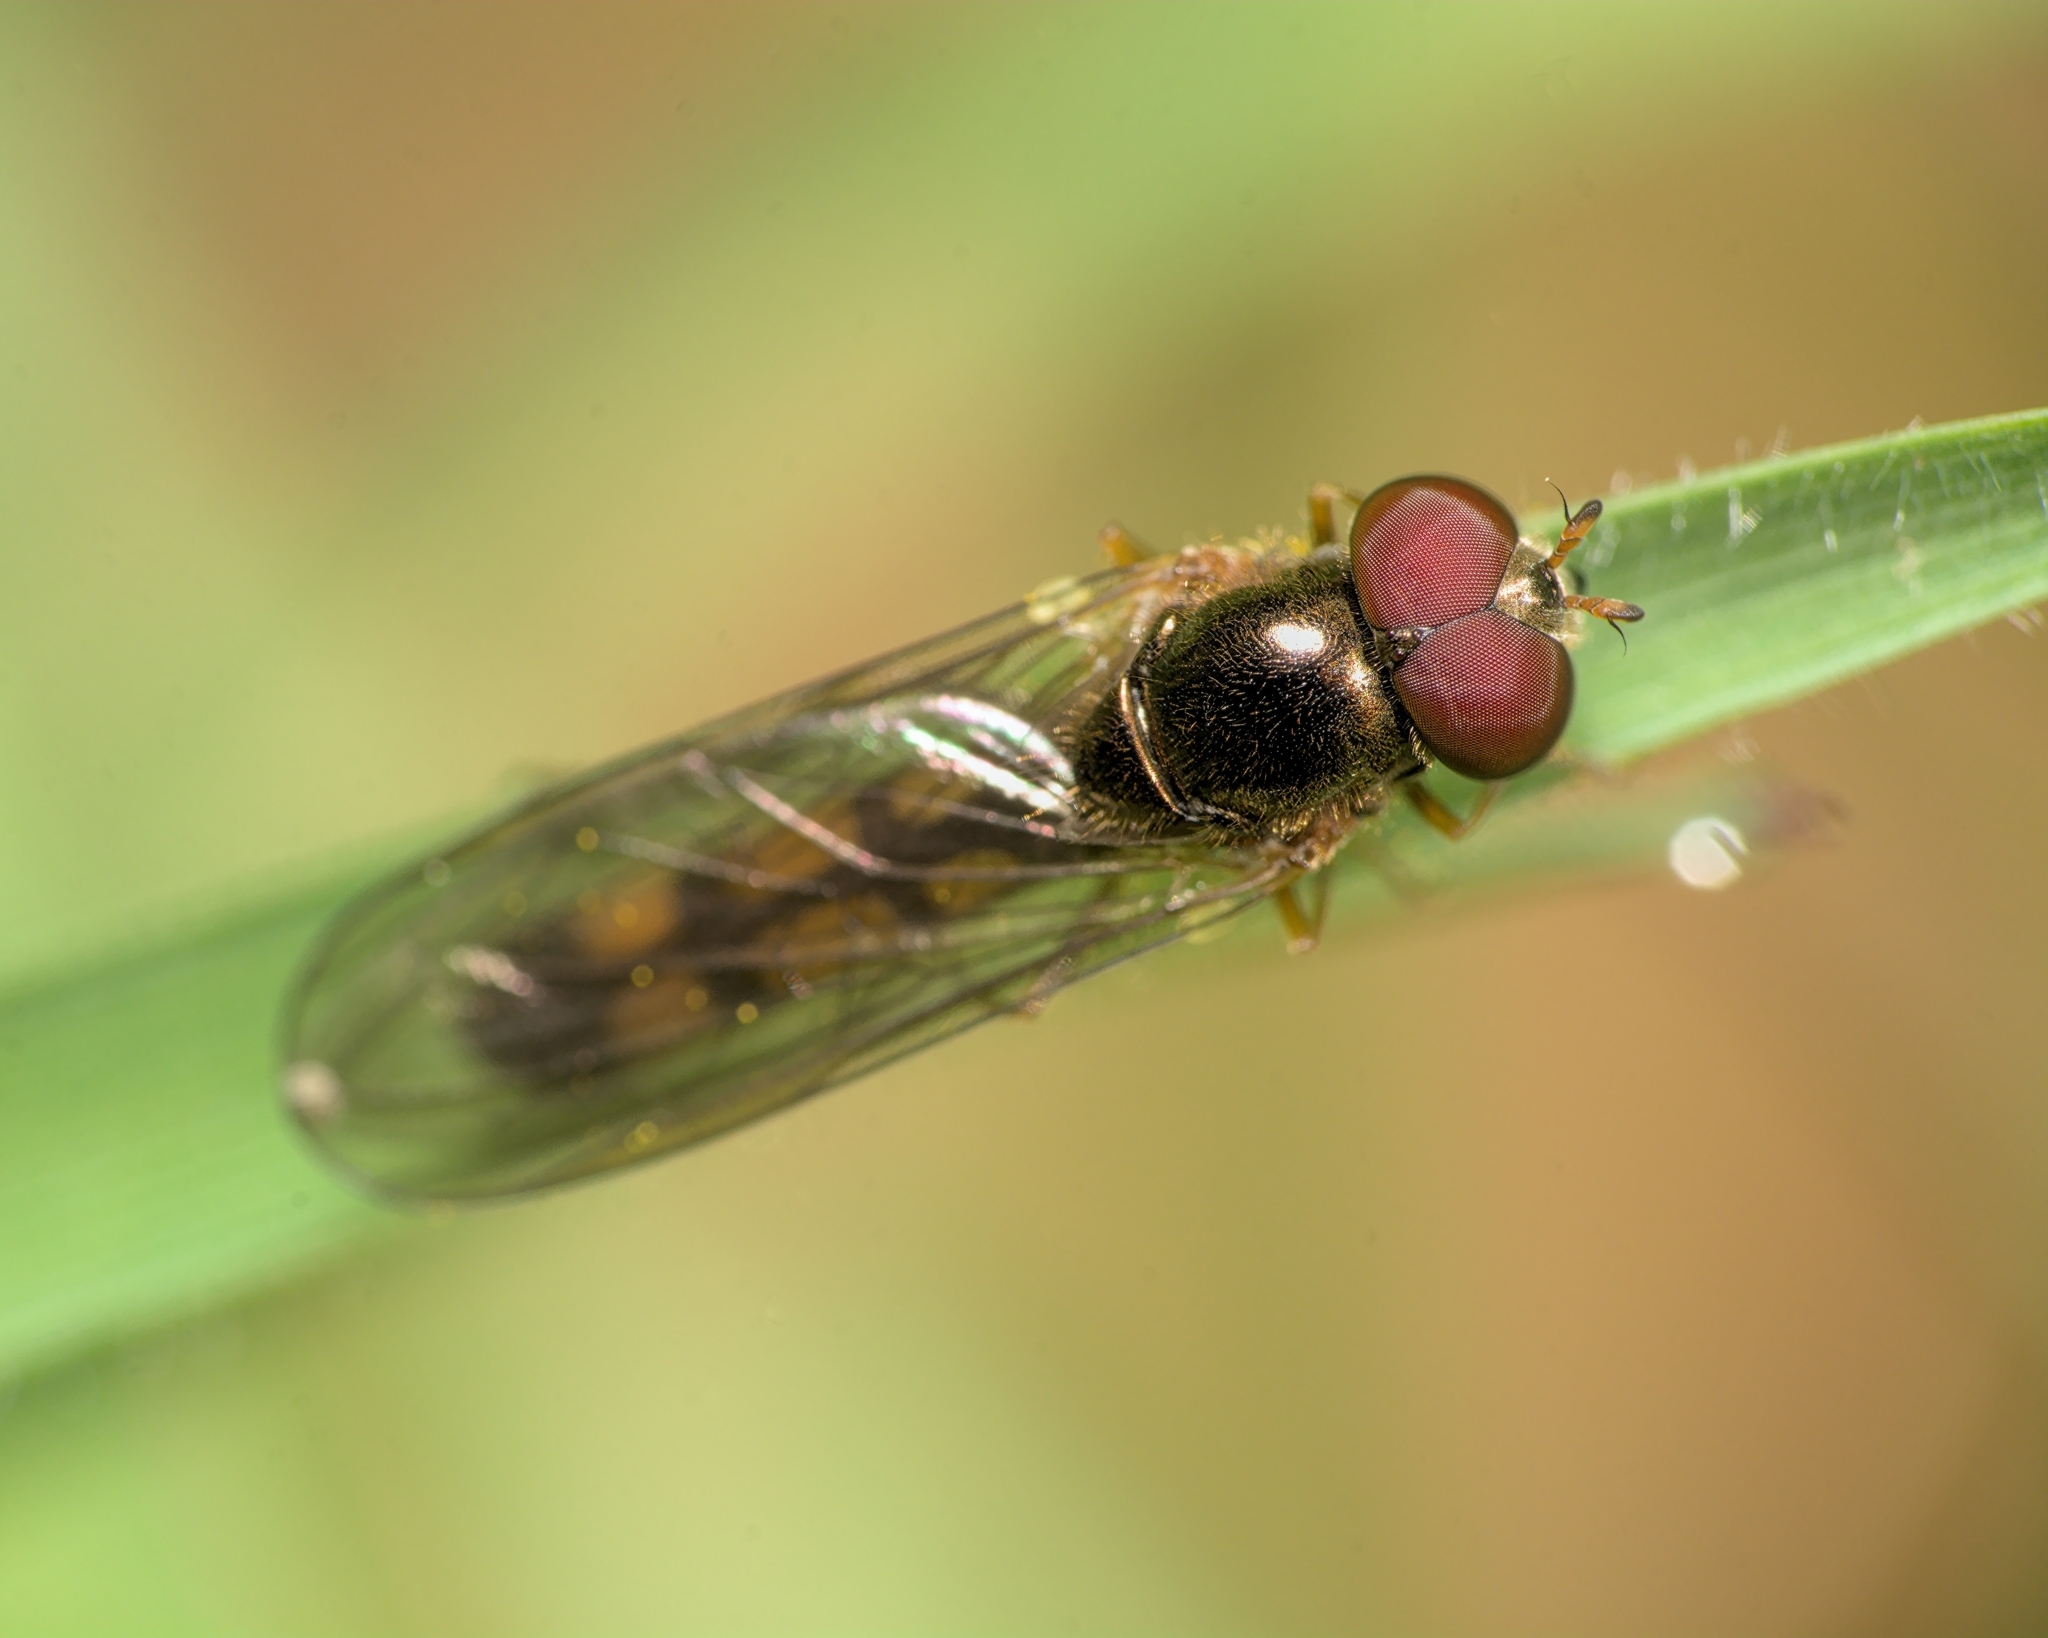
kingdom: Animalia
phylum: Arthropoda
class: Insecta
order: Diptera
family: Syrphidae
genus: Melanostoma
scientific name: Melanostoma scalare
